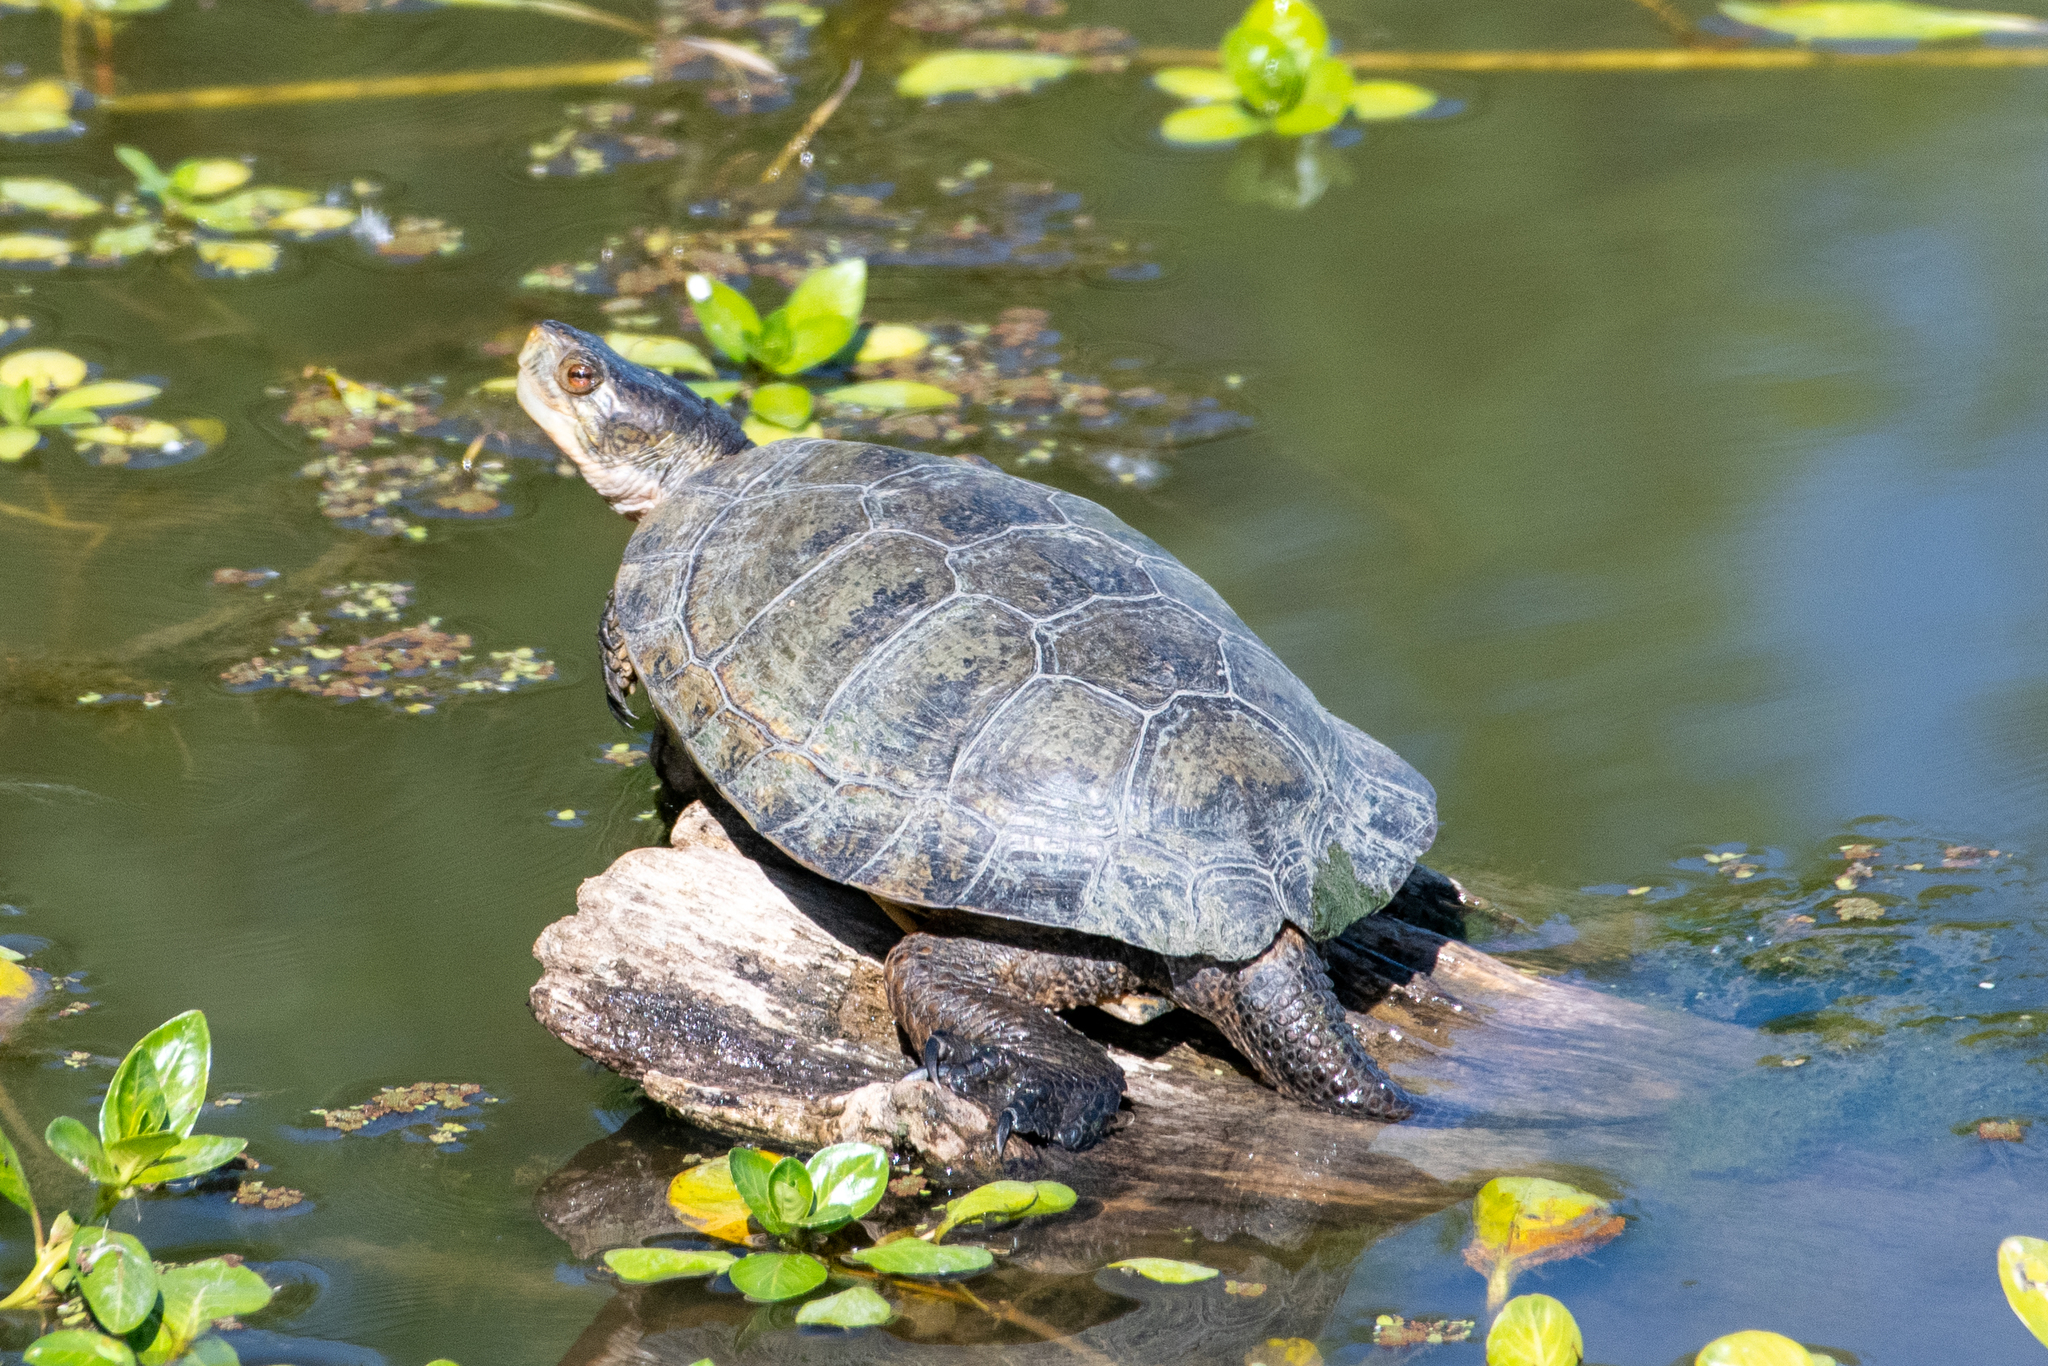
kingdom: Animalia
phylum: Chordata
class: Testudines
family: Emydidae
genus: Actinemys
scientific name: Actinemys marmorata
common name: Western pond turtle
